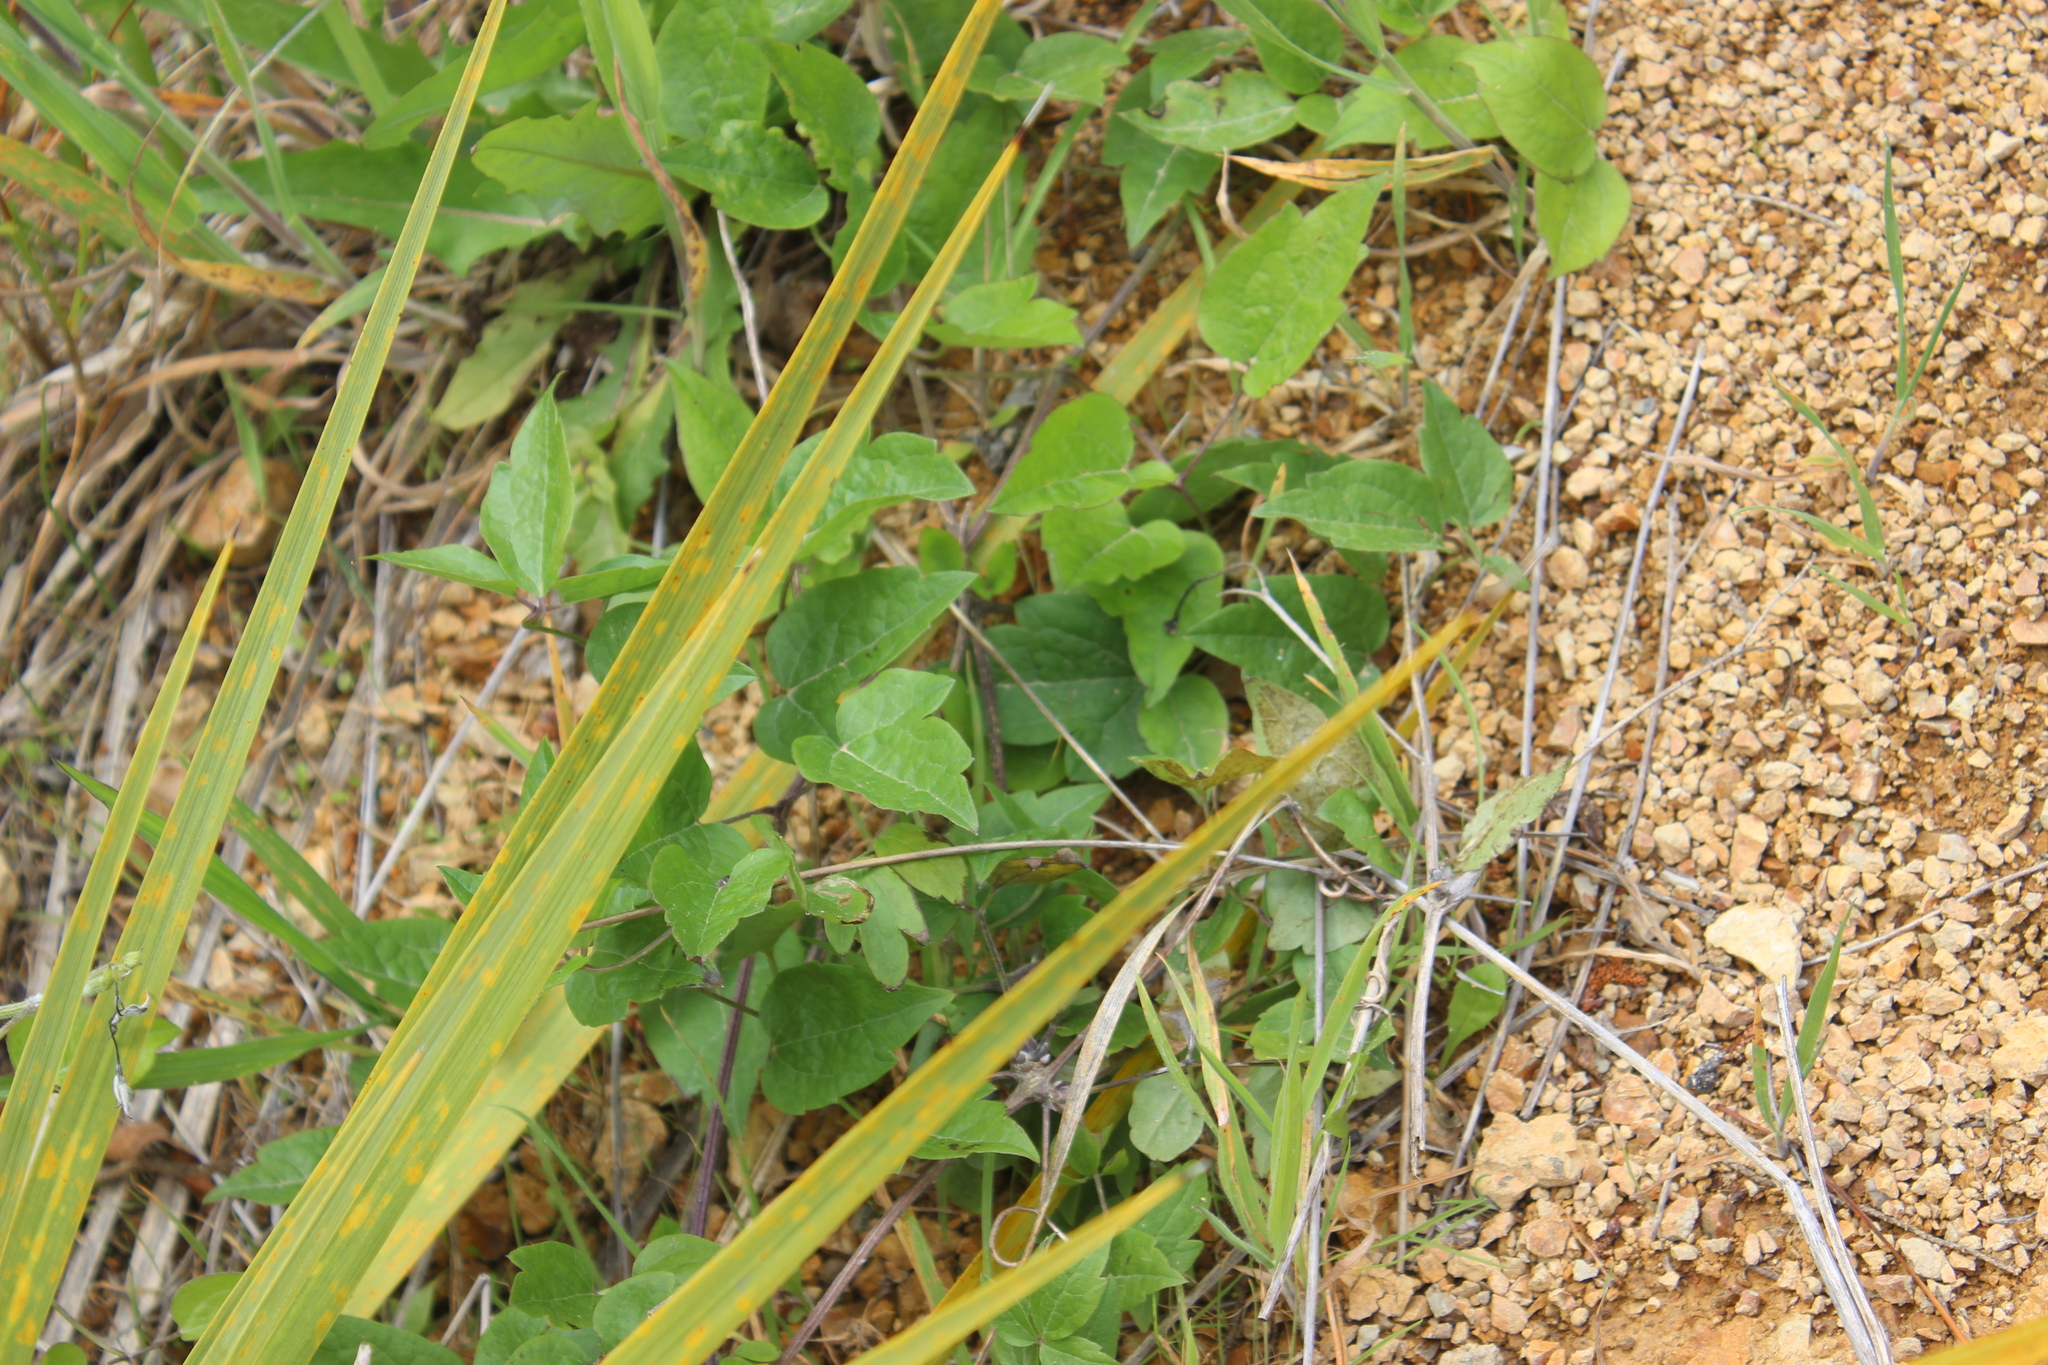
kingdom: Plantae
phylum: Tracheophyta
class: Magnoliopsida
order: Ranunculales
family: Ranunculaceae
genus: Clematis
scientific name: Clematis vitalba
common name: Evergreen clematis
